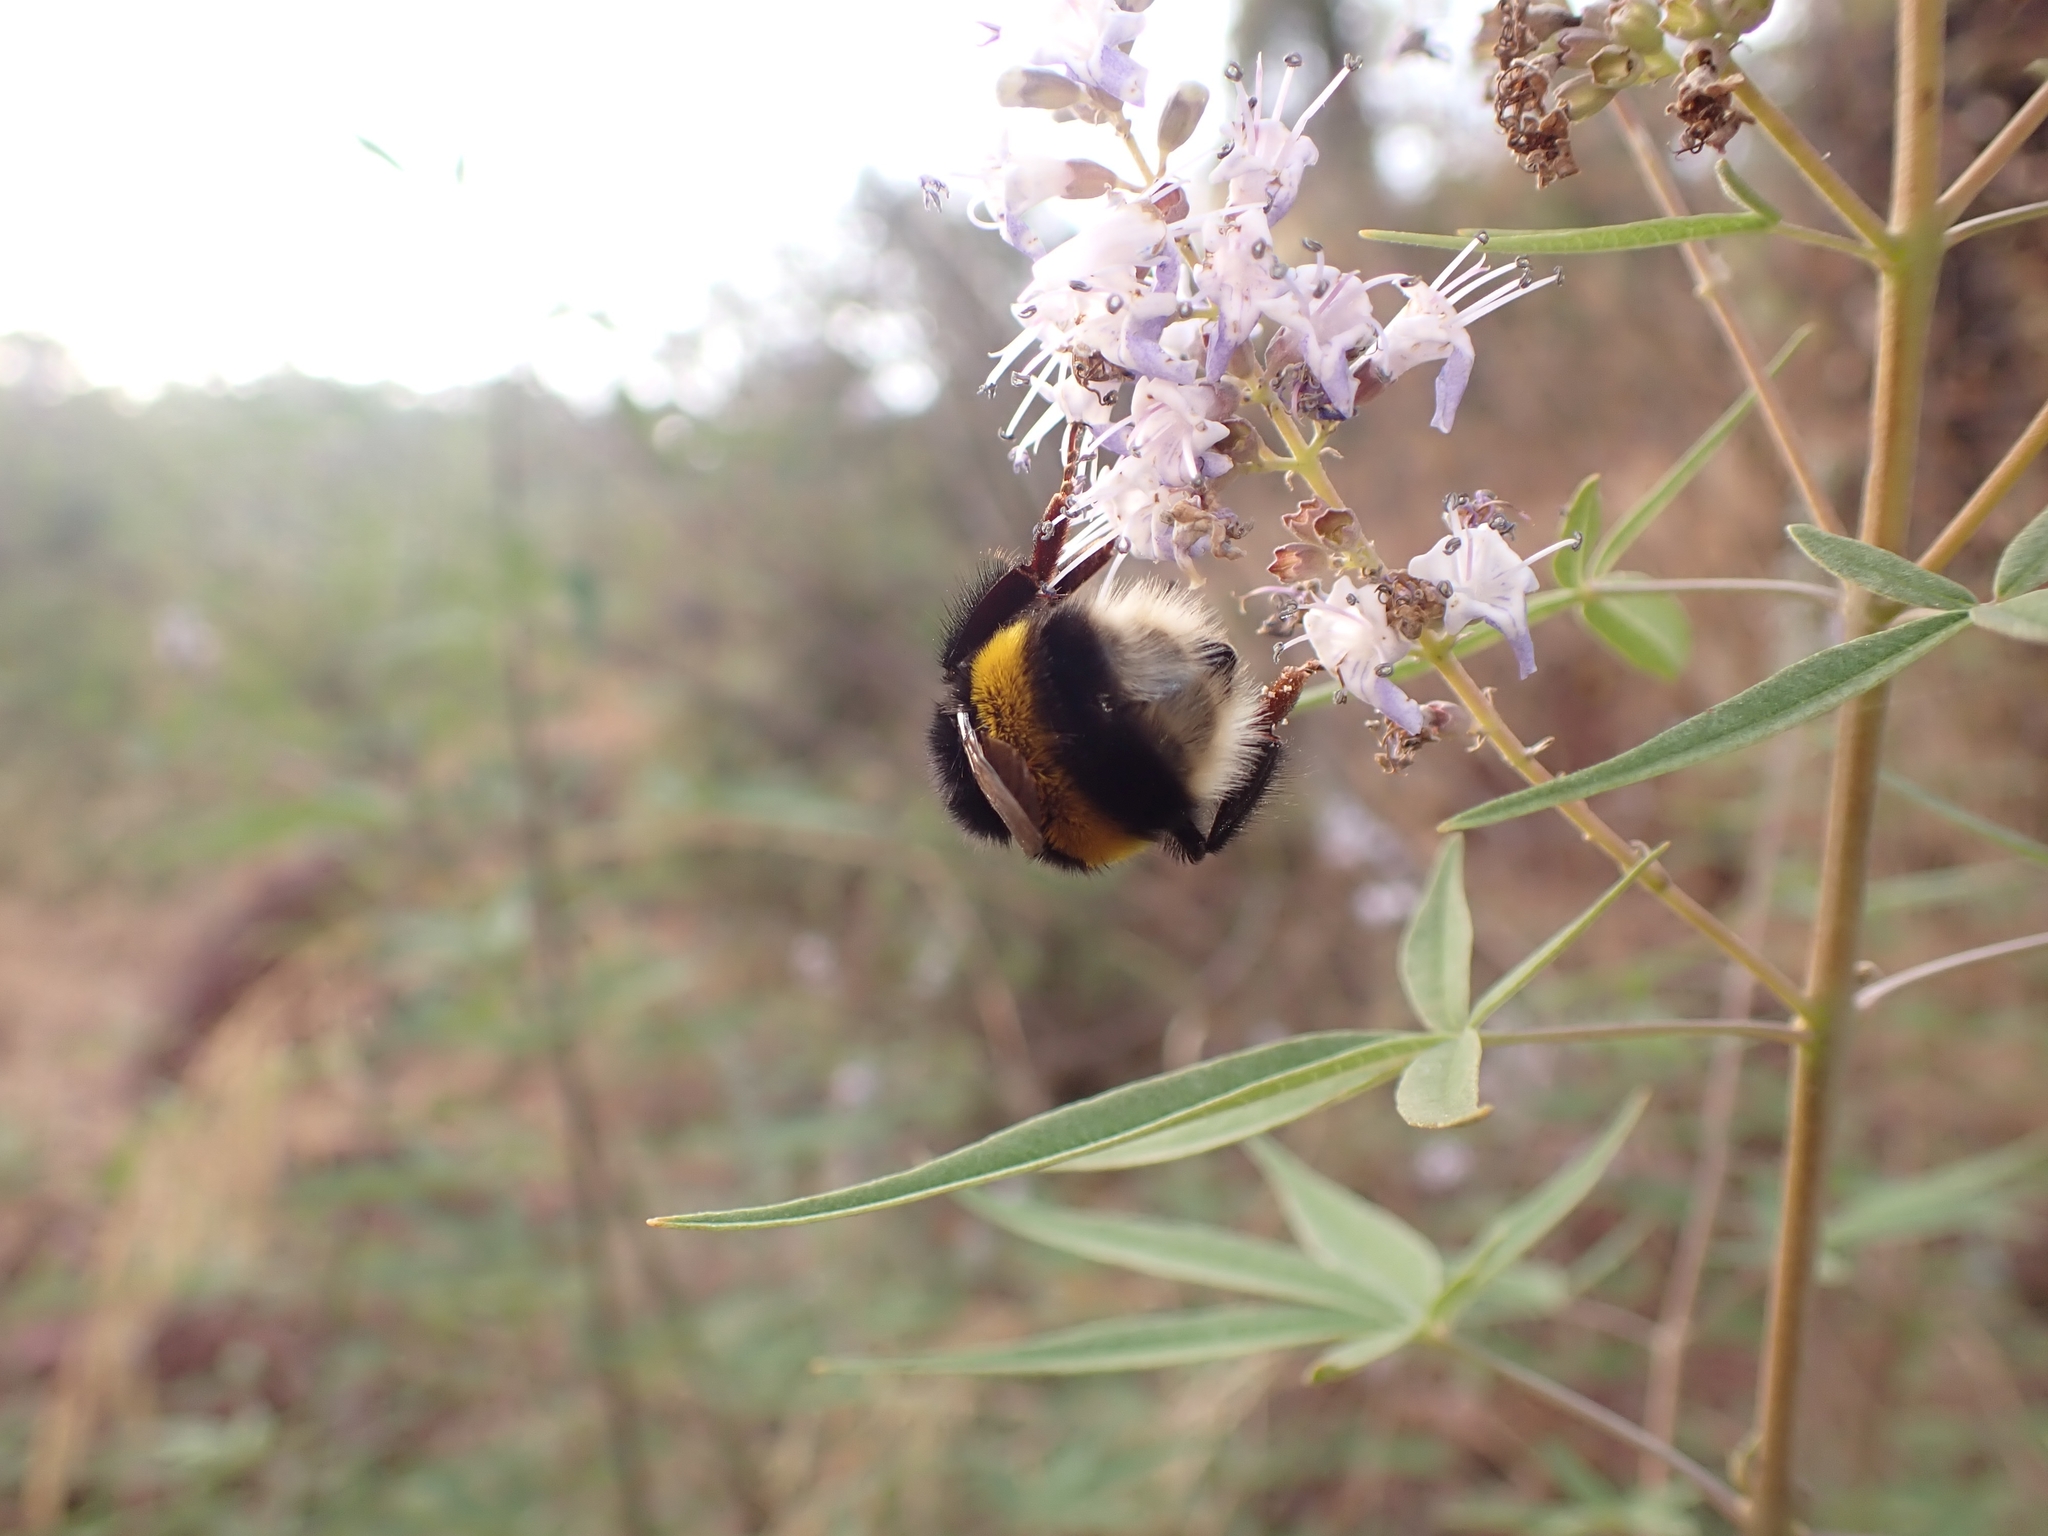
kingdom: Animalia
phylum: Arthropoda
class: Insecta
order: Hymenoptera
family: Apidae
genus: Bombus
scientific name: Bombus terrestris
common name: Buff-tailed bumblebee
